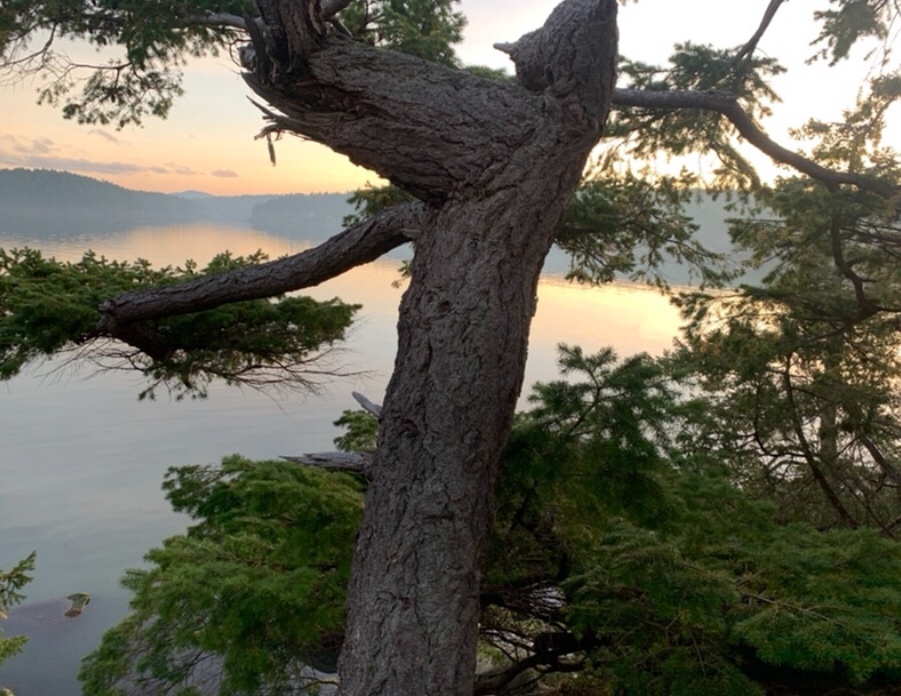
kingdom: Plantae
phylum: Tracheophyta
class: Pinopsida
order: Pinales
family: Pinaceae
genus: Pseudotsuga
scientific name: Pseudotsuga menziesii
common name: Douglas fir
